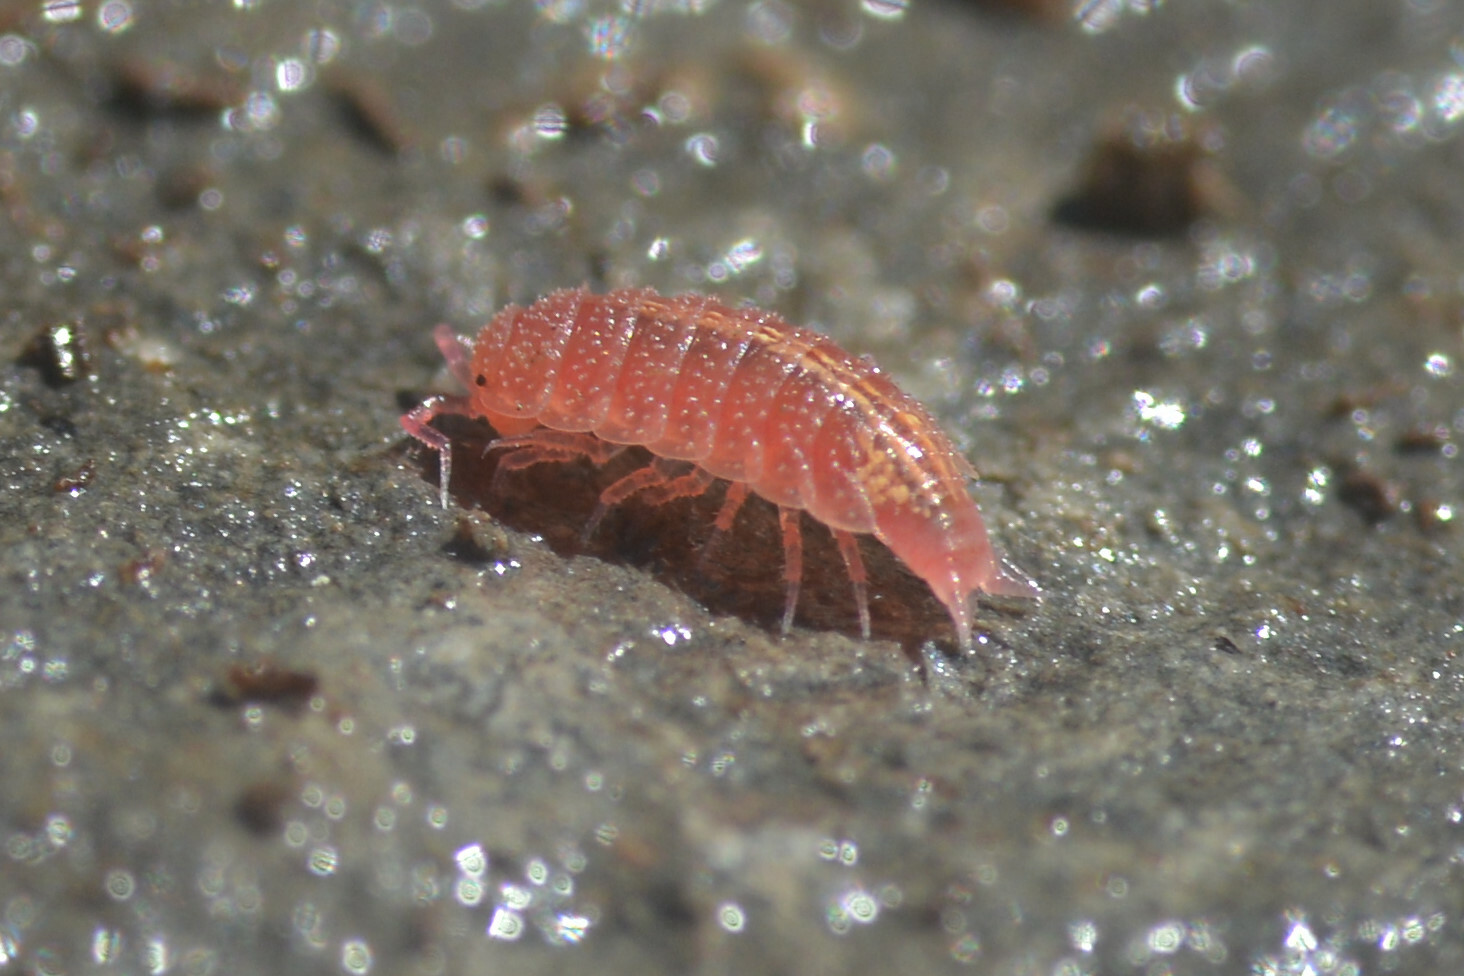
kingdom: Animalia
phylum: Arthropoda
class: Malacostraca
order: Isopoda
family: Trichoniscidae
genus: Androniscus
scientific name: Androniscus dentiger
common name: Rosy woodlouse
